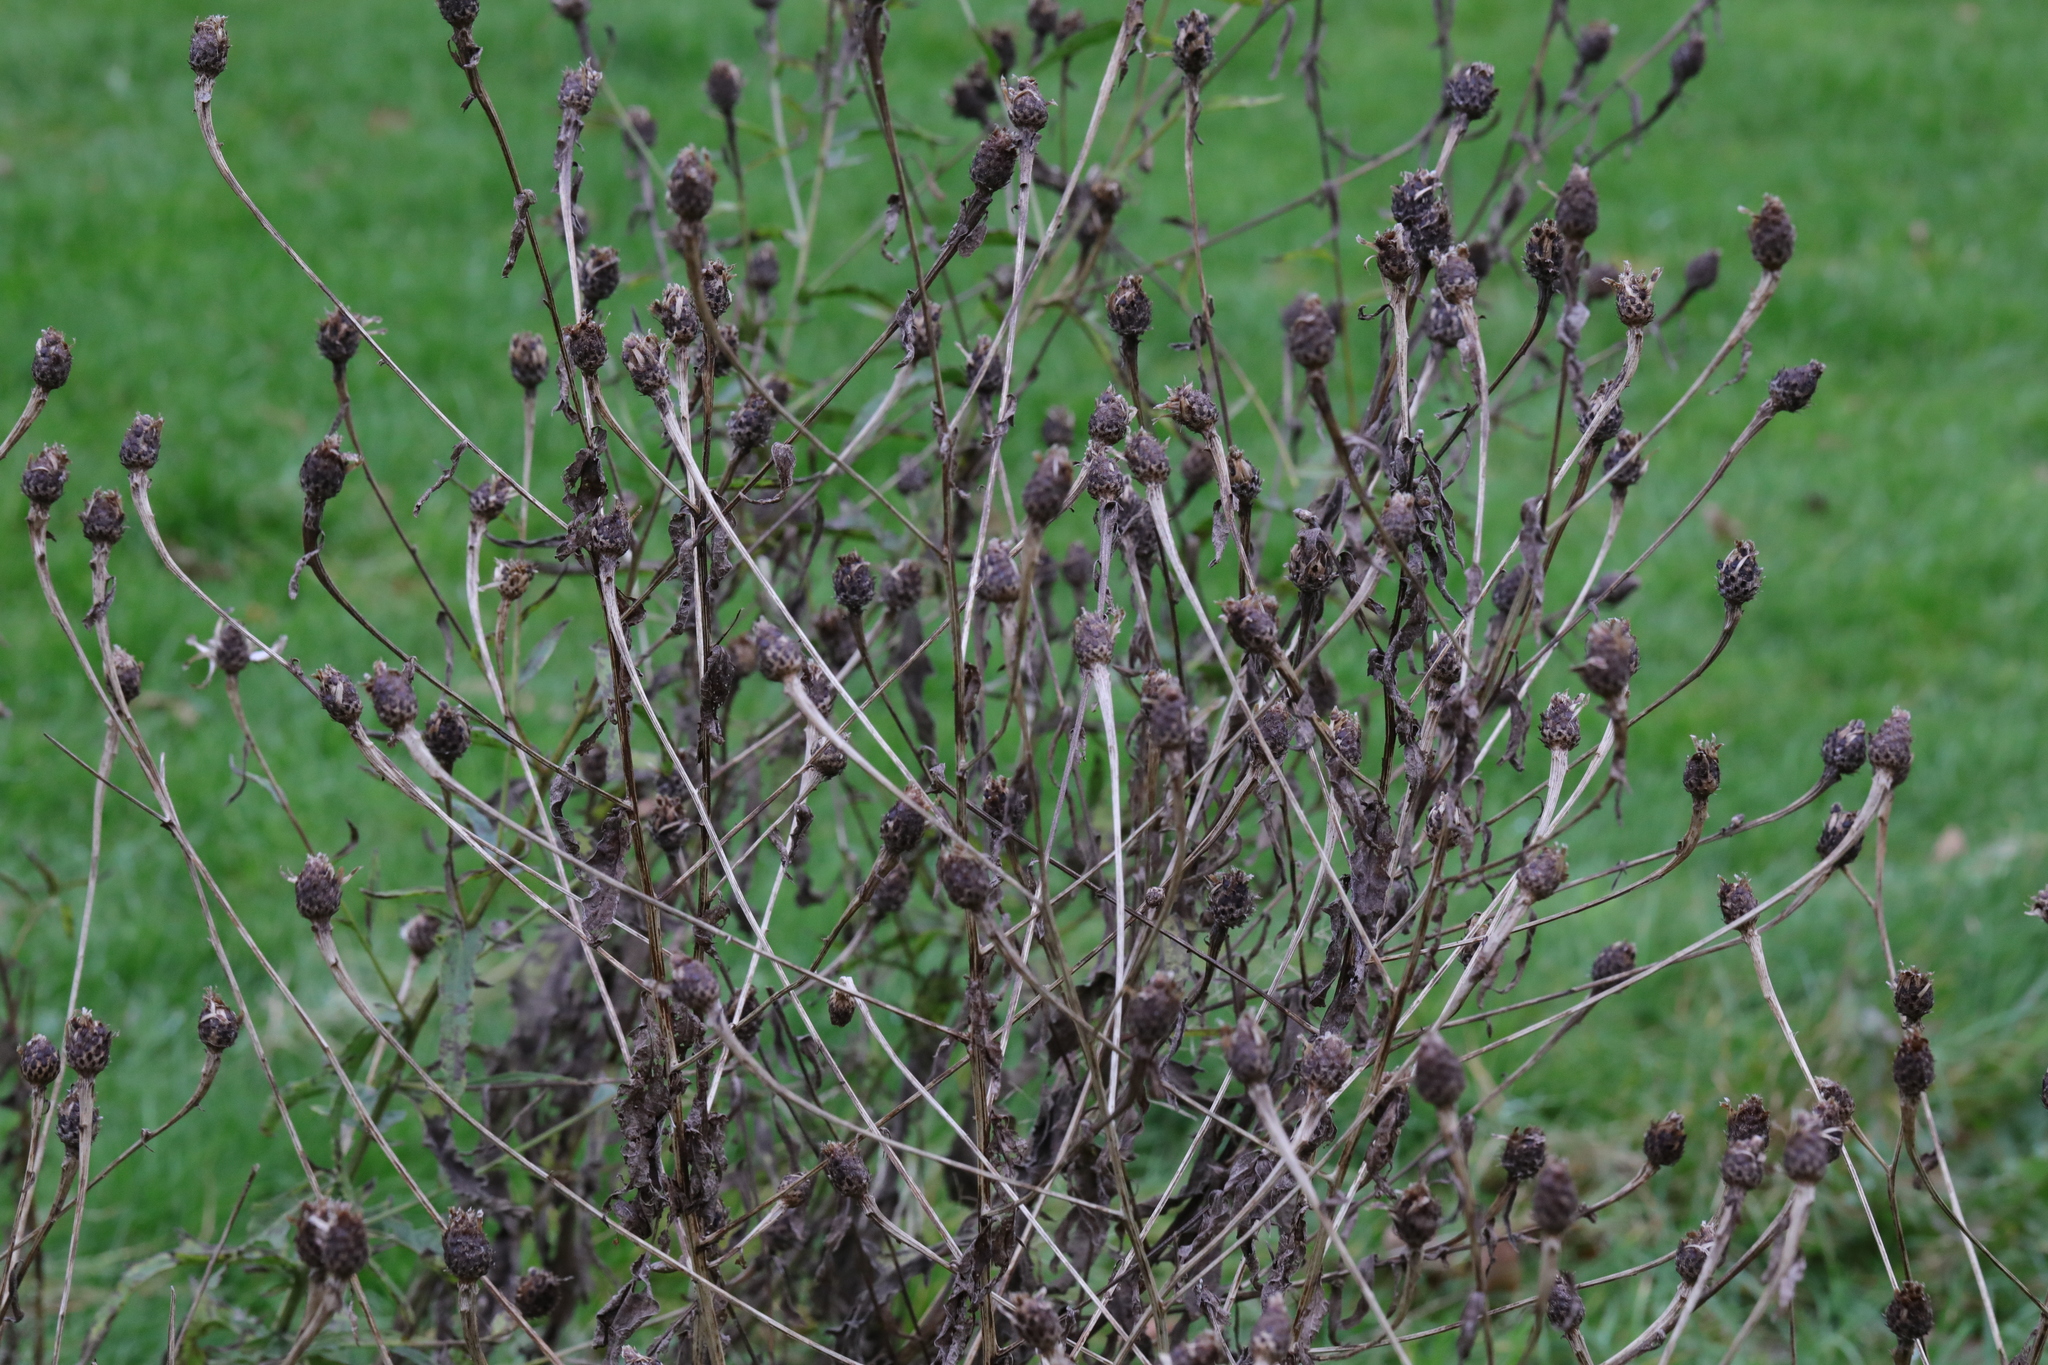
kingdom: Plantae
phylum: Tracheophyta
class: Magnoliopsida
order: Asterales
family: Asteraceae
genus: Centaurea
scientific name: Centaurea nigra
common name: Lesser knapweed
